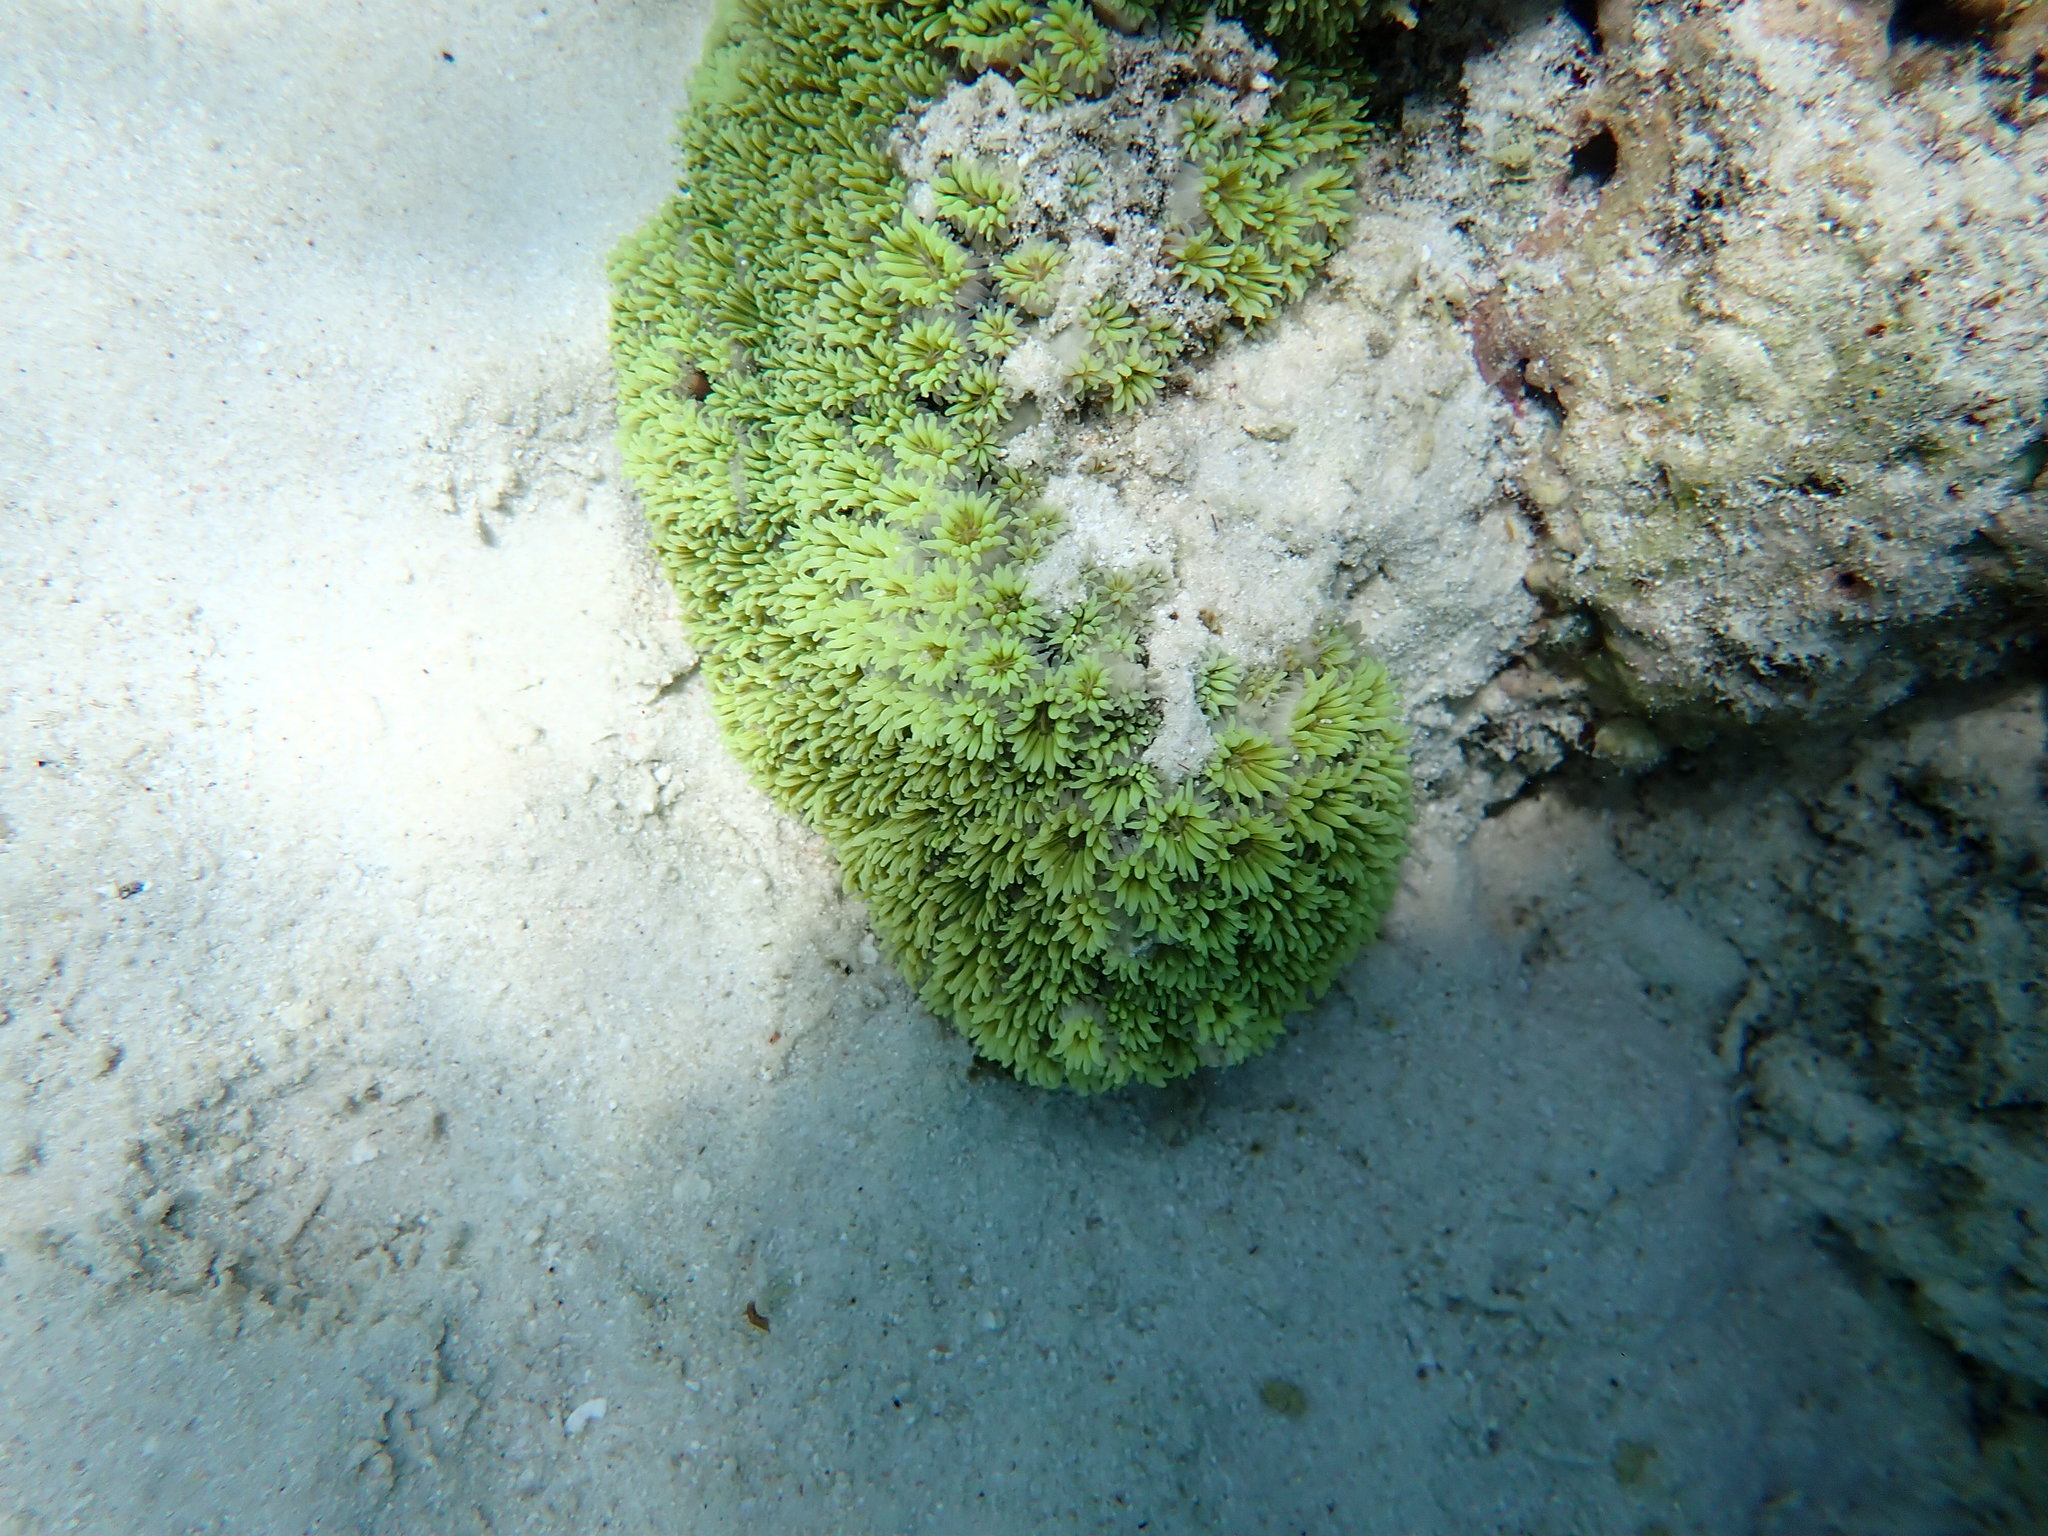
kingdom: Animalia
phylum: Cnidaria
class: Anthozoa
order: Scleractinia
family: Euphylliidae
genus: Galaxea
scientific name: Galaxea fascicularis
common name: Octopus coral
